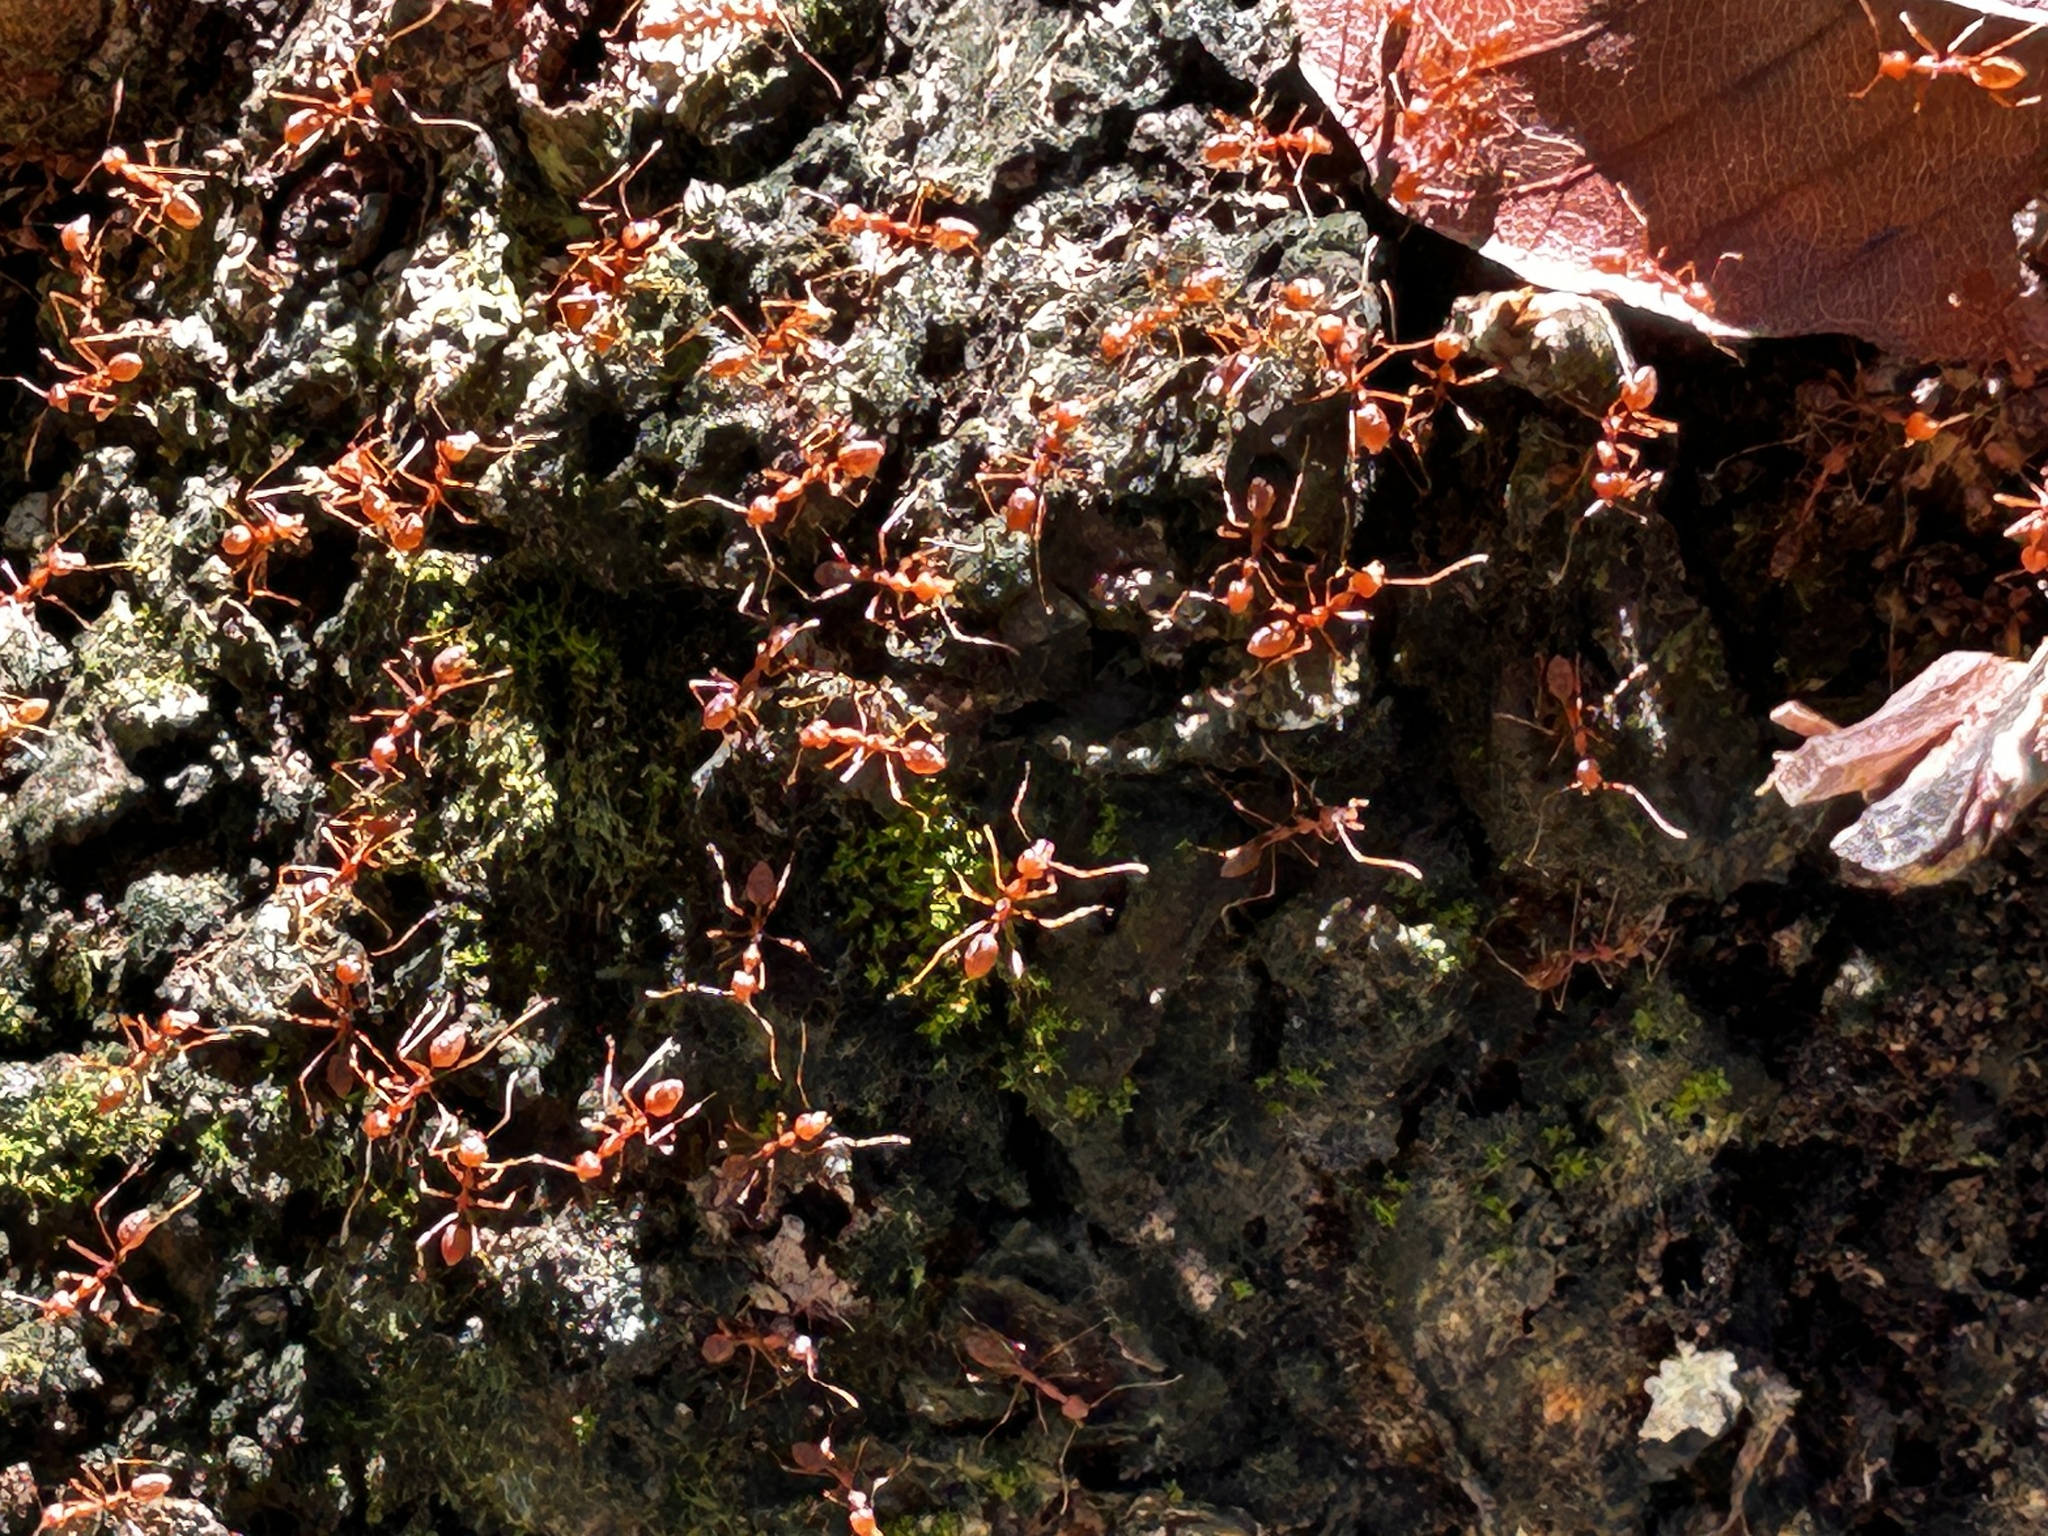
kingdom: Animalia
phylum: Arthropoda
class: Insecta
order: Hymenoptera
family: Formicidae
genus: Oecophylla
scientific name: Oecophylla smaragdina
